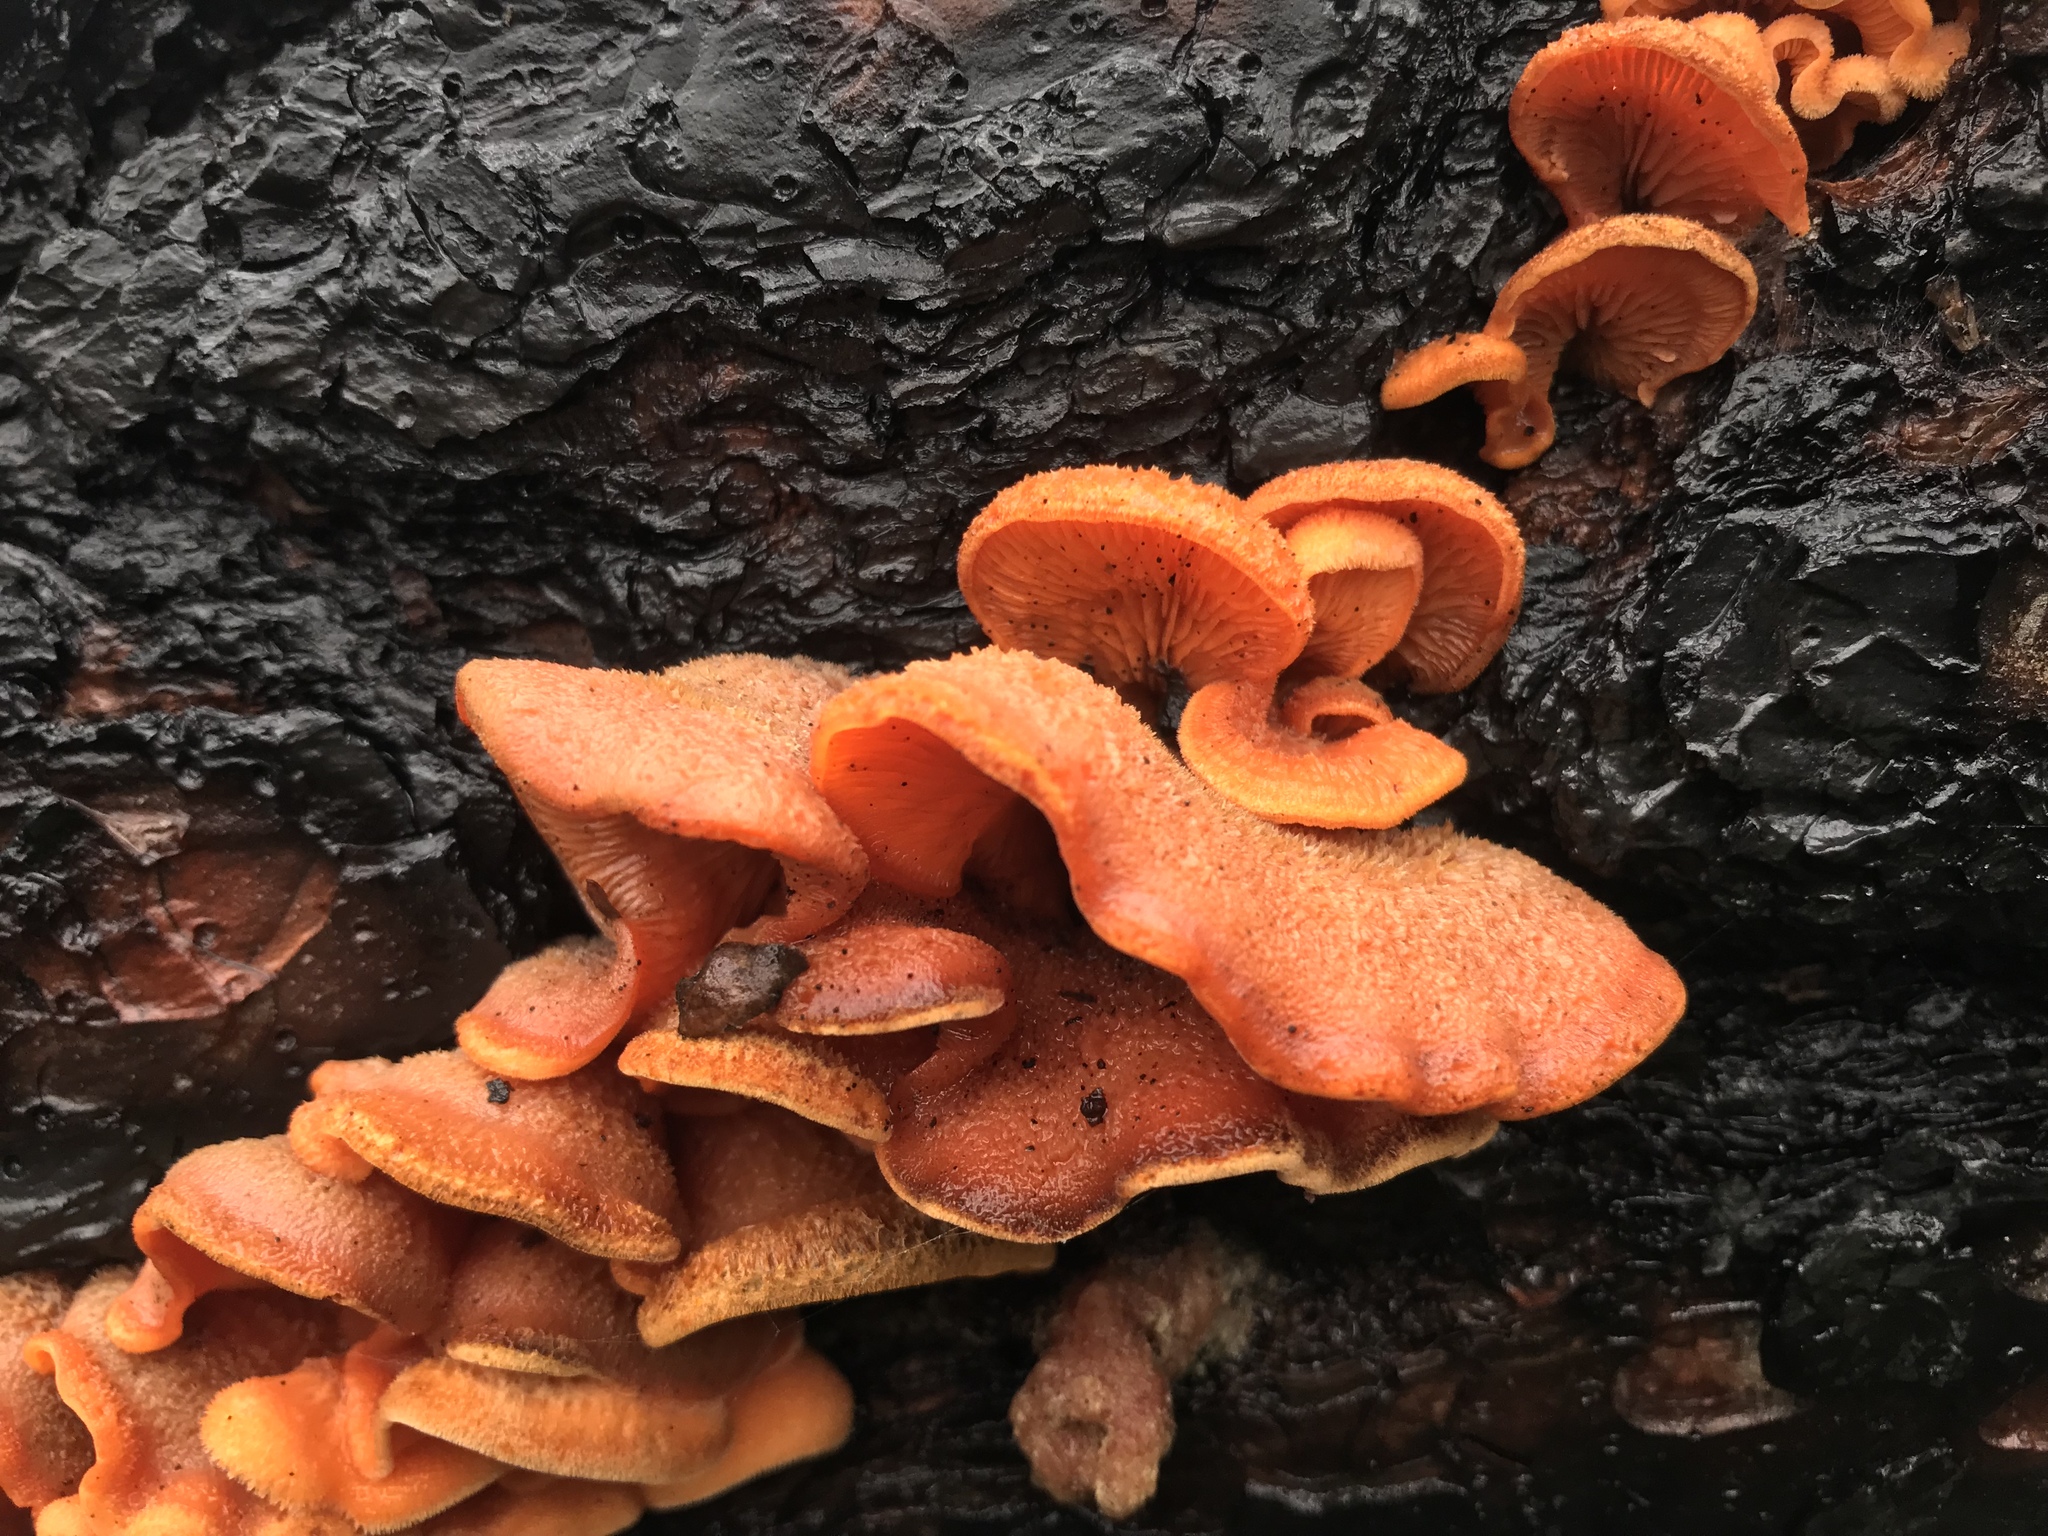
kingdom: Fungi
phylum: Basidiomycota
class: Agaricomycetes
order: Agaricales
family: Phyllotopsidaceae
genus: Phyllotopsis
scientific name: Phyllotopsis nidulans
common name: Orange mock oyster
